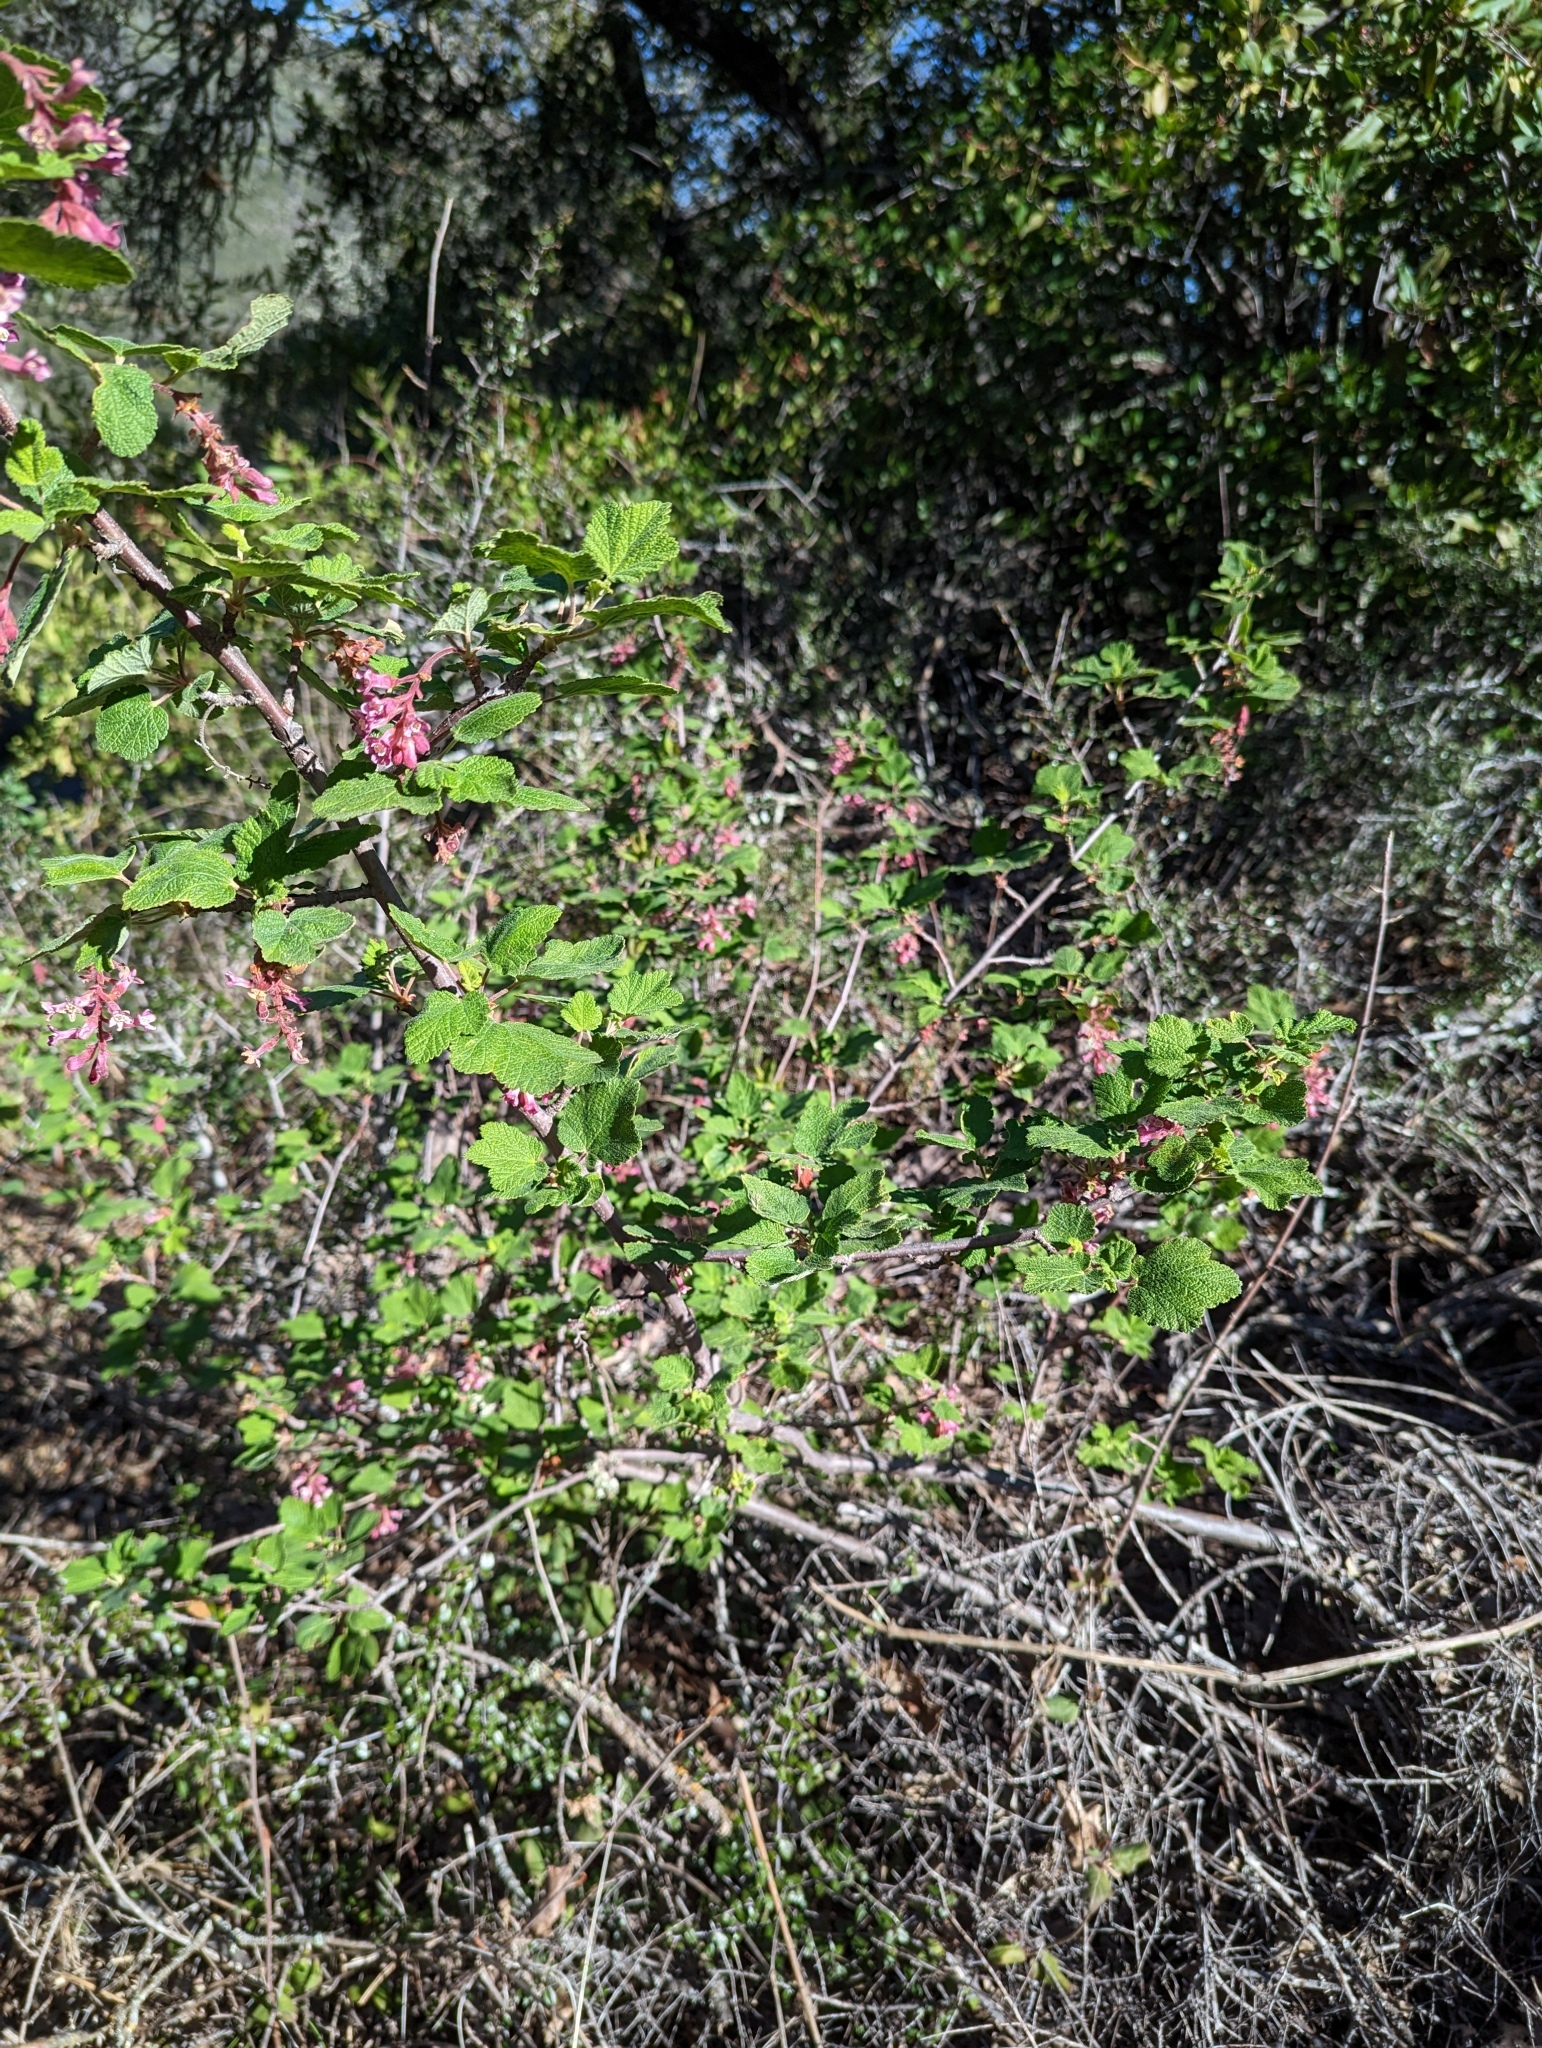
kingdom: Plantae
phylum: Tracheophyta
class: Magnoliopsida
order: Saxifragales
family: Grossulariaceae
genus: Ribes
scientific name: Ribes malvaceum
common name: Chaparral currant
